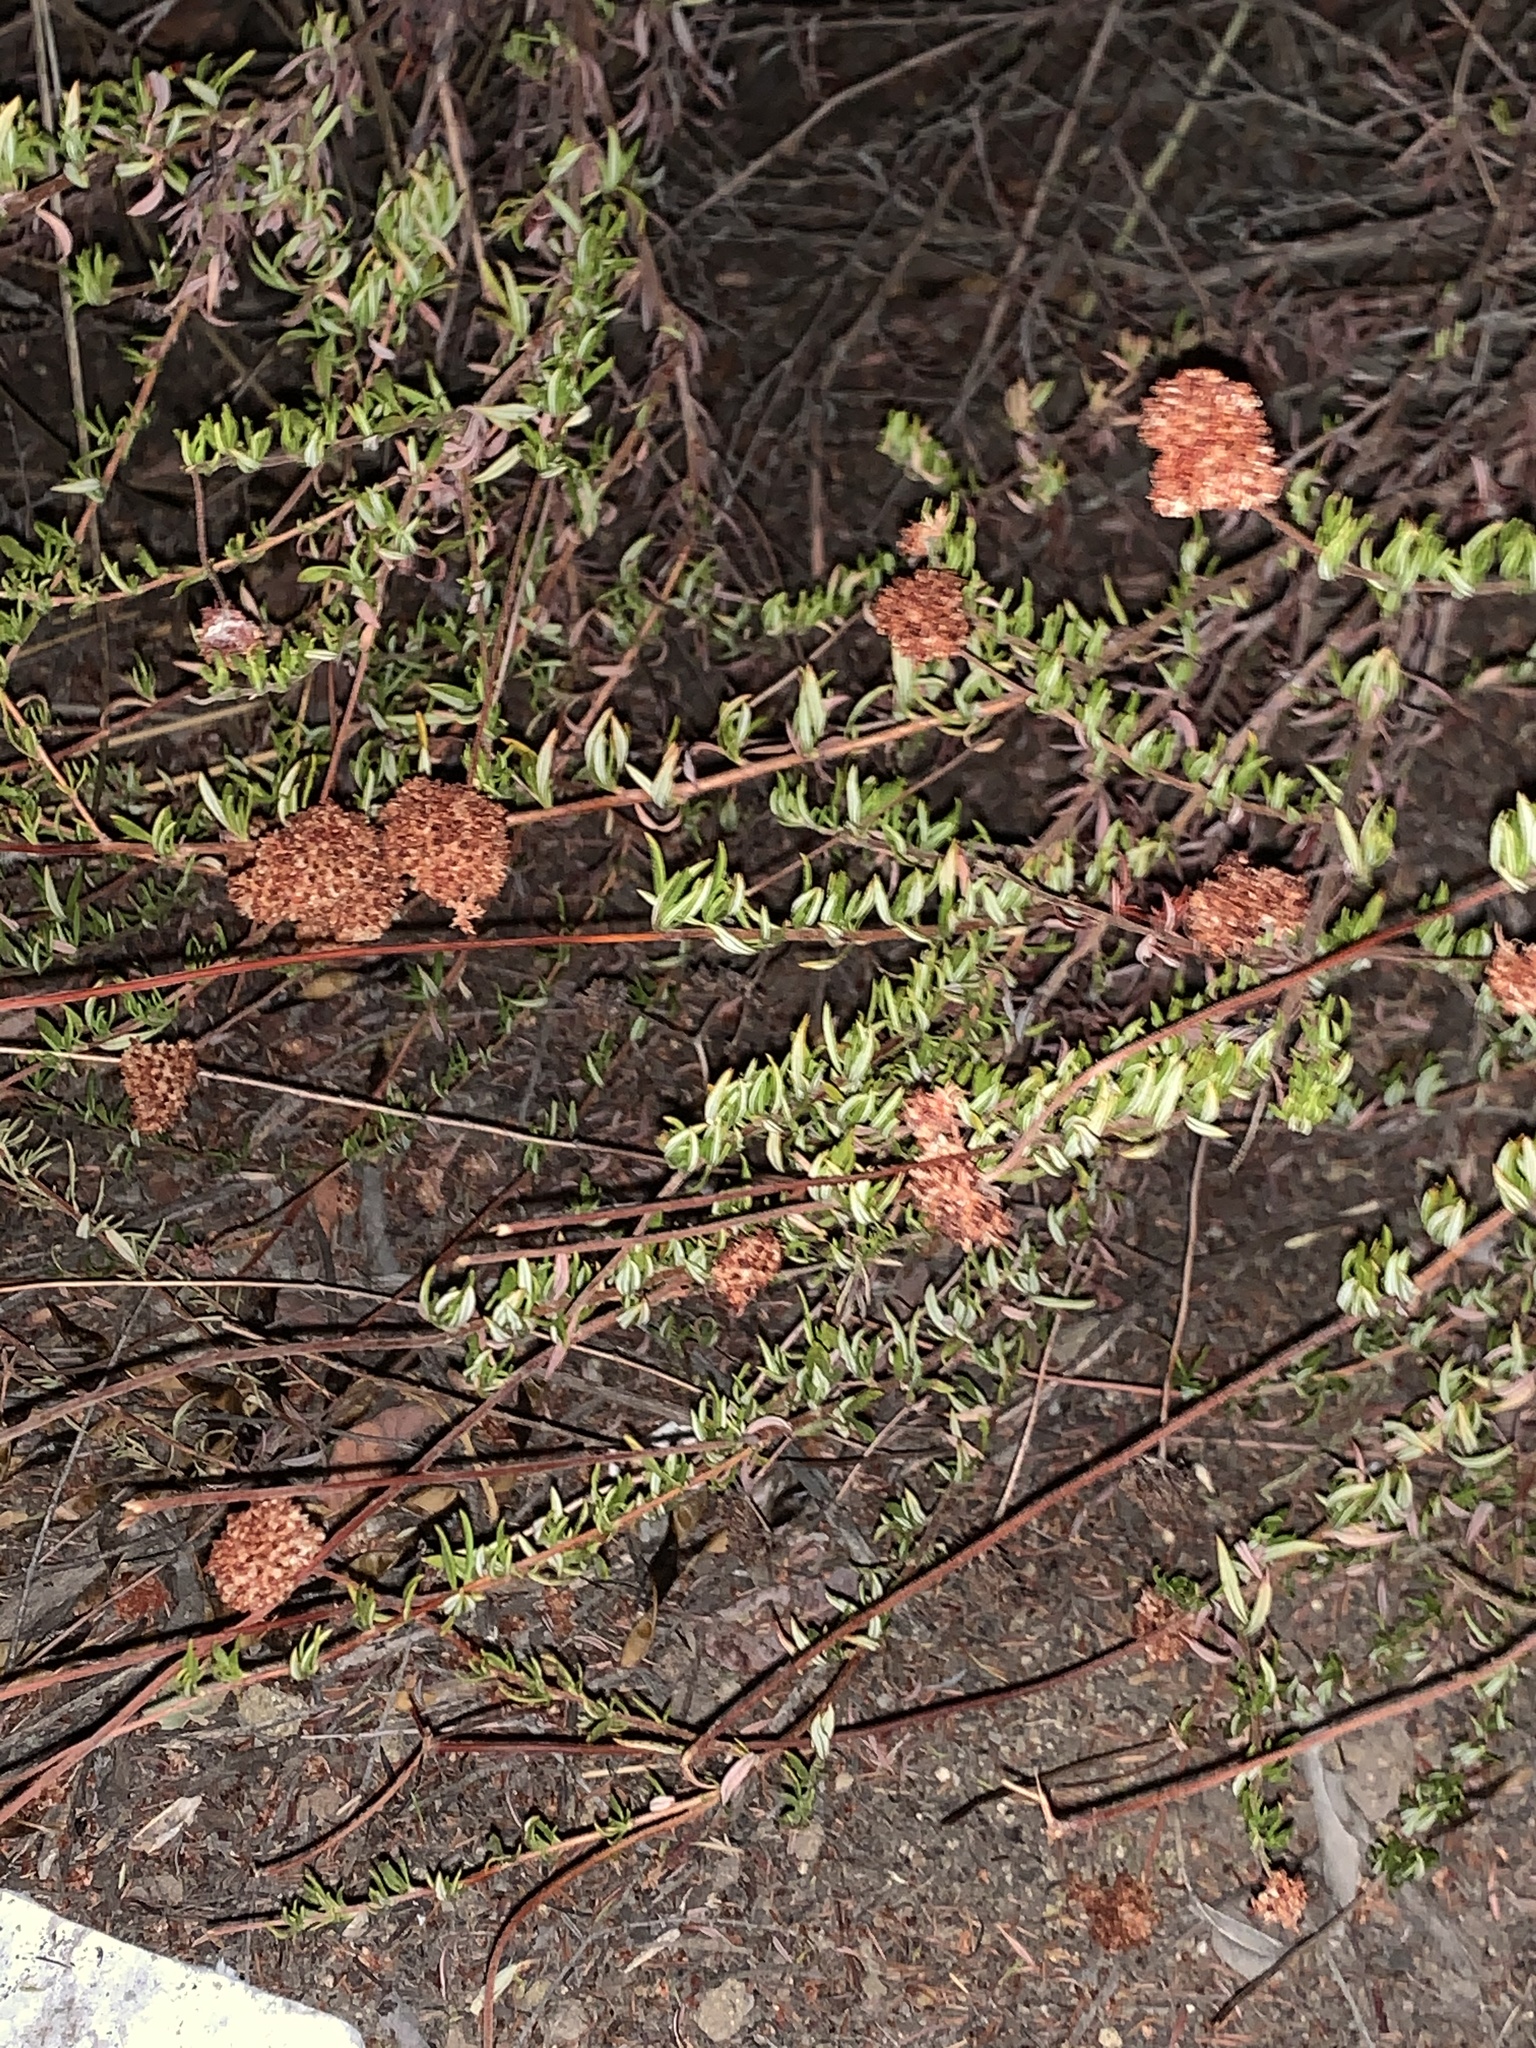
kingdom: Plantae
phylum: Tracheophyta
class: Magnoliopsida
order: Caryophyllales
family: Polygonaceae
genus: Eriogonum
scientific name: Eriogonum fasciculatum
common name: California wild buckwheat
